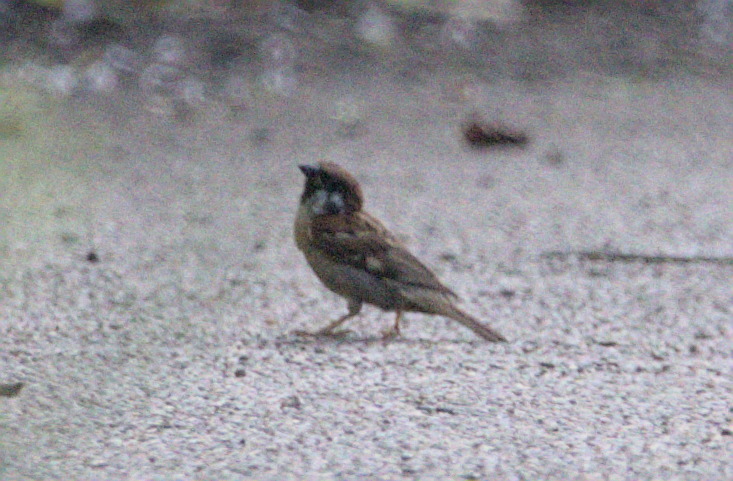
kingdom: Animalia
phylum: Chordata
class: Aves
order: Passeriformes
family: Passeridae
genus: Passer
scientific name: Passer montanus
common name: Eurasian tree sparrow
